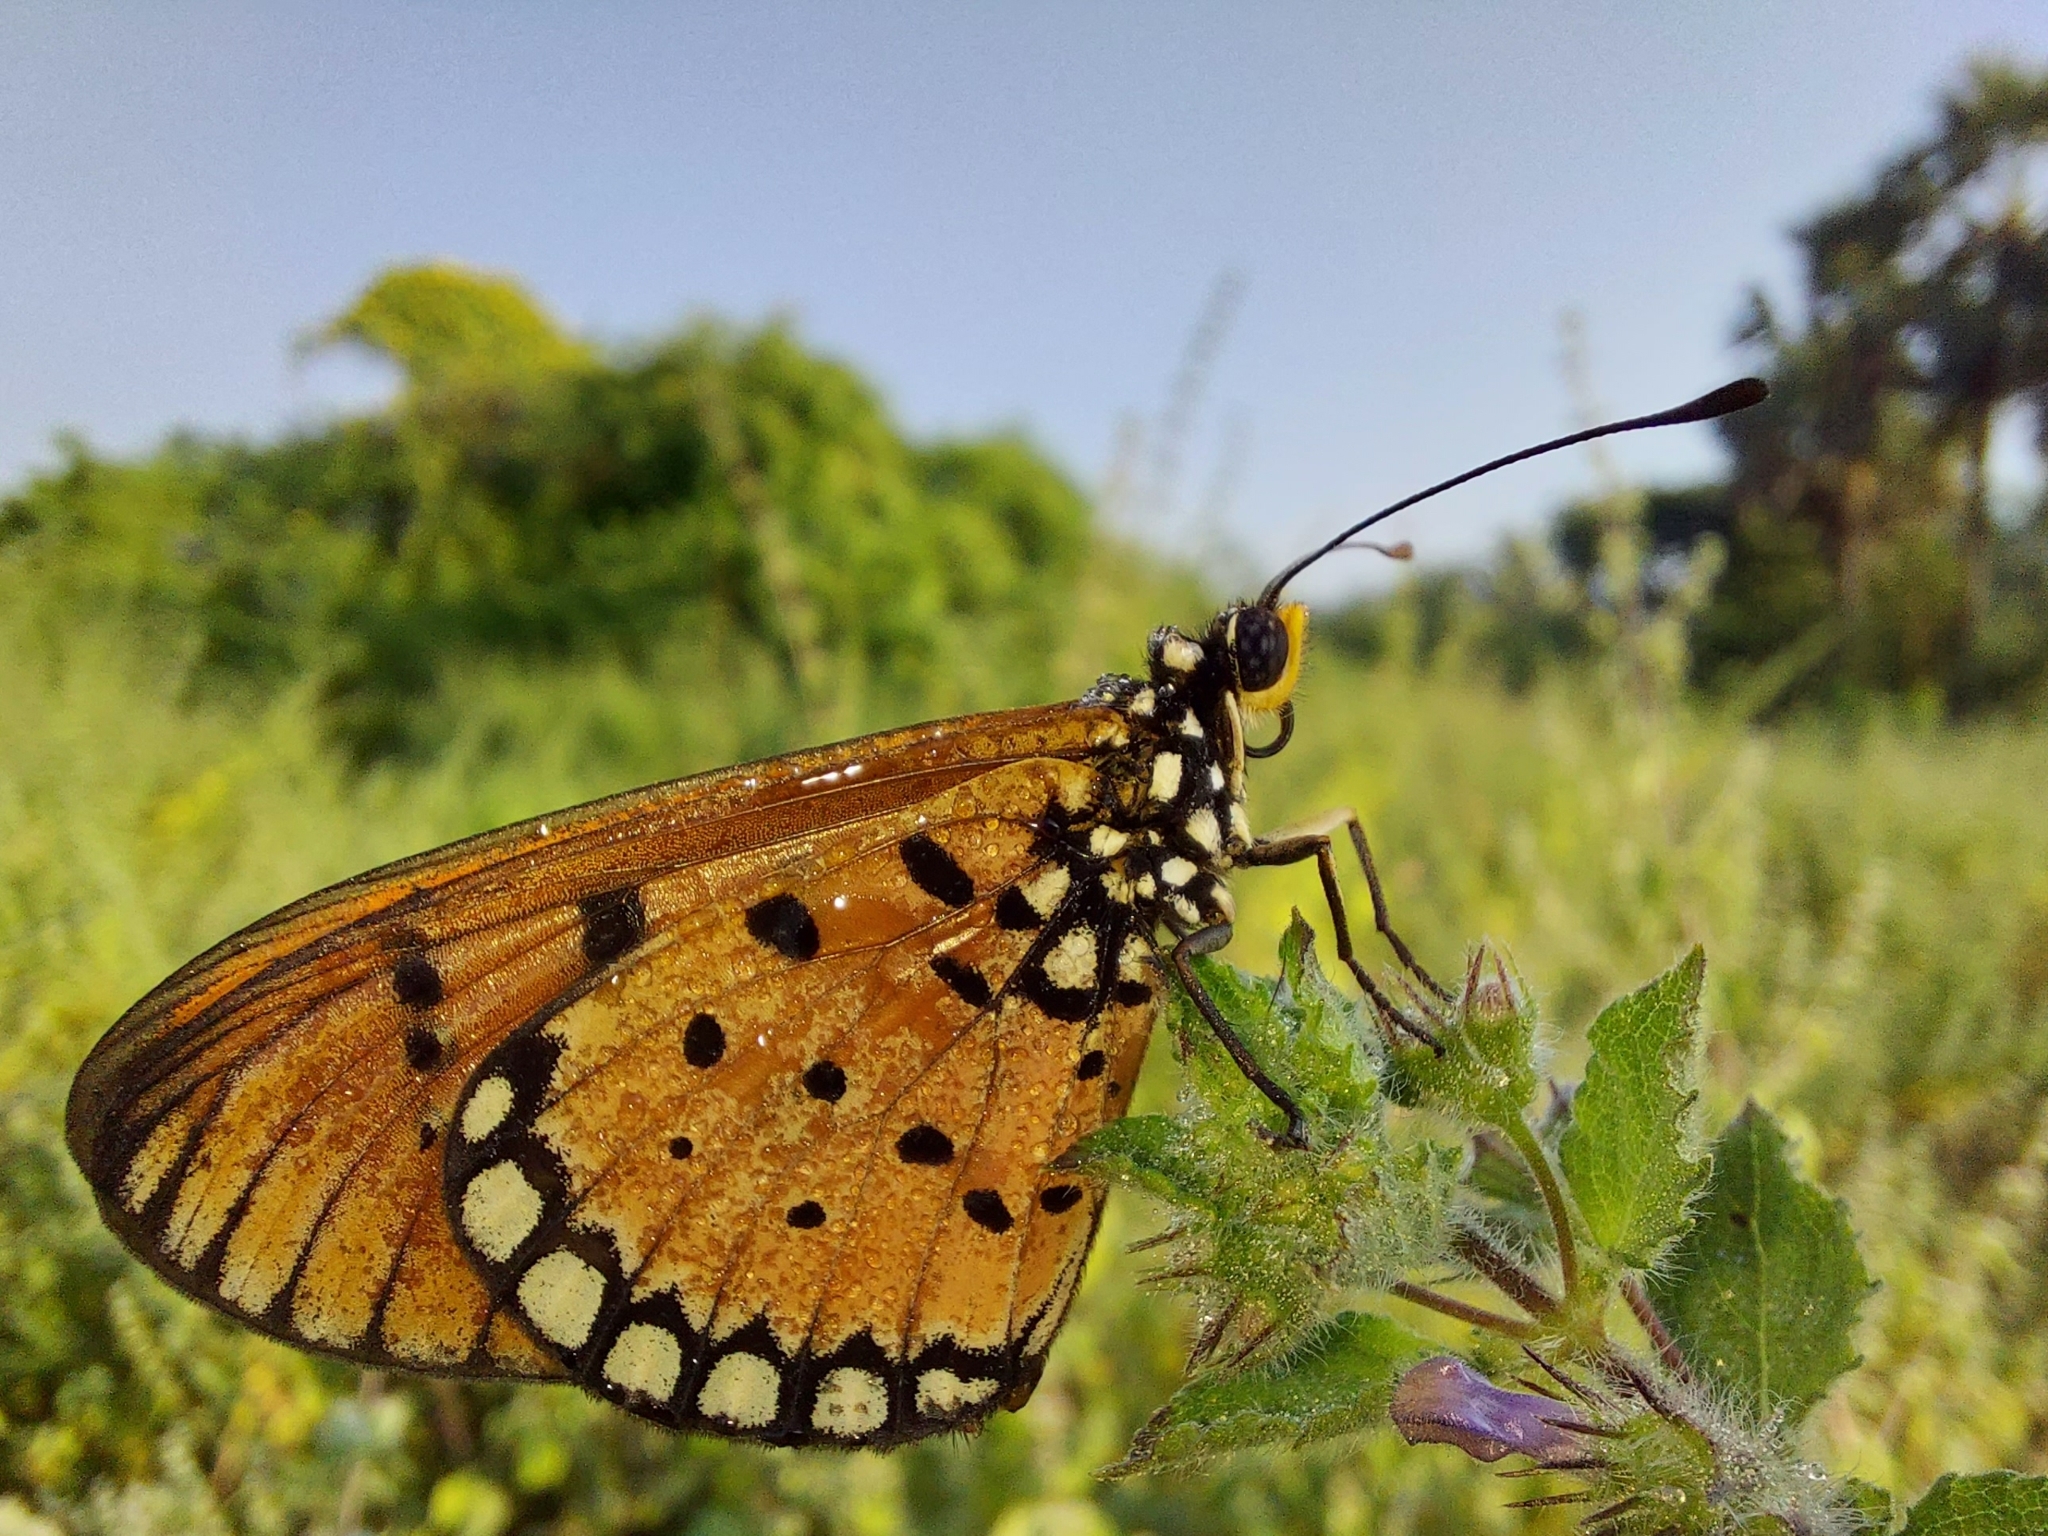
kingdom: Animalia
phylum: Arthropoda
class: Insecta
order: Lepidoptera
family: Nymphalidae
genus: Acraea
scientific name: Acraea terpsicore
